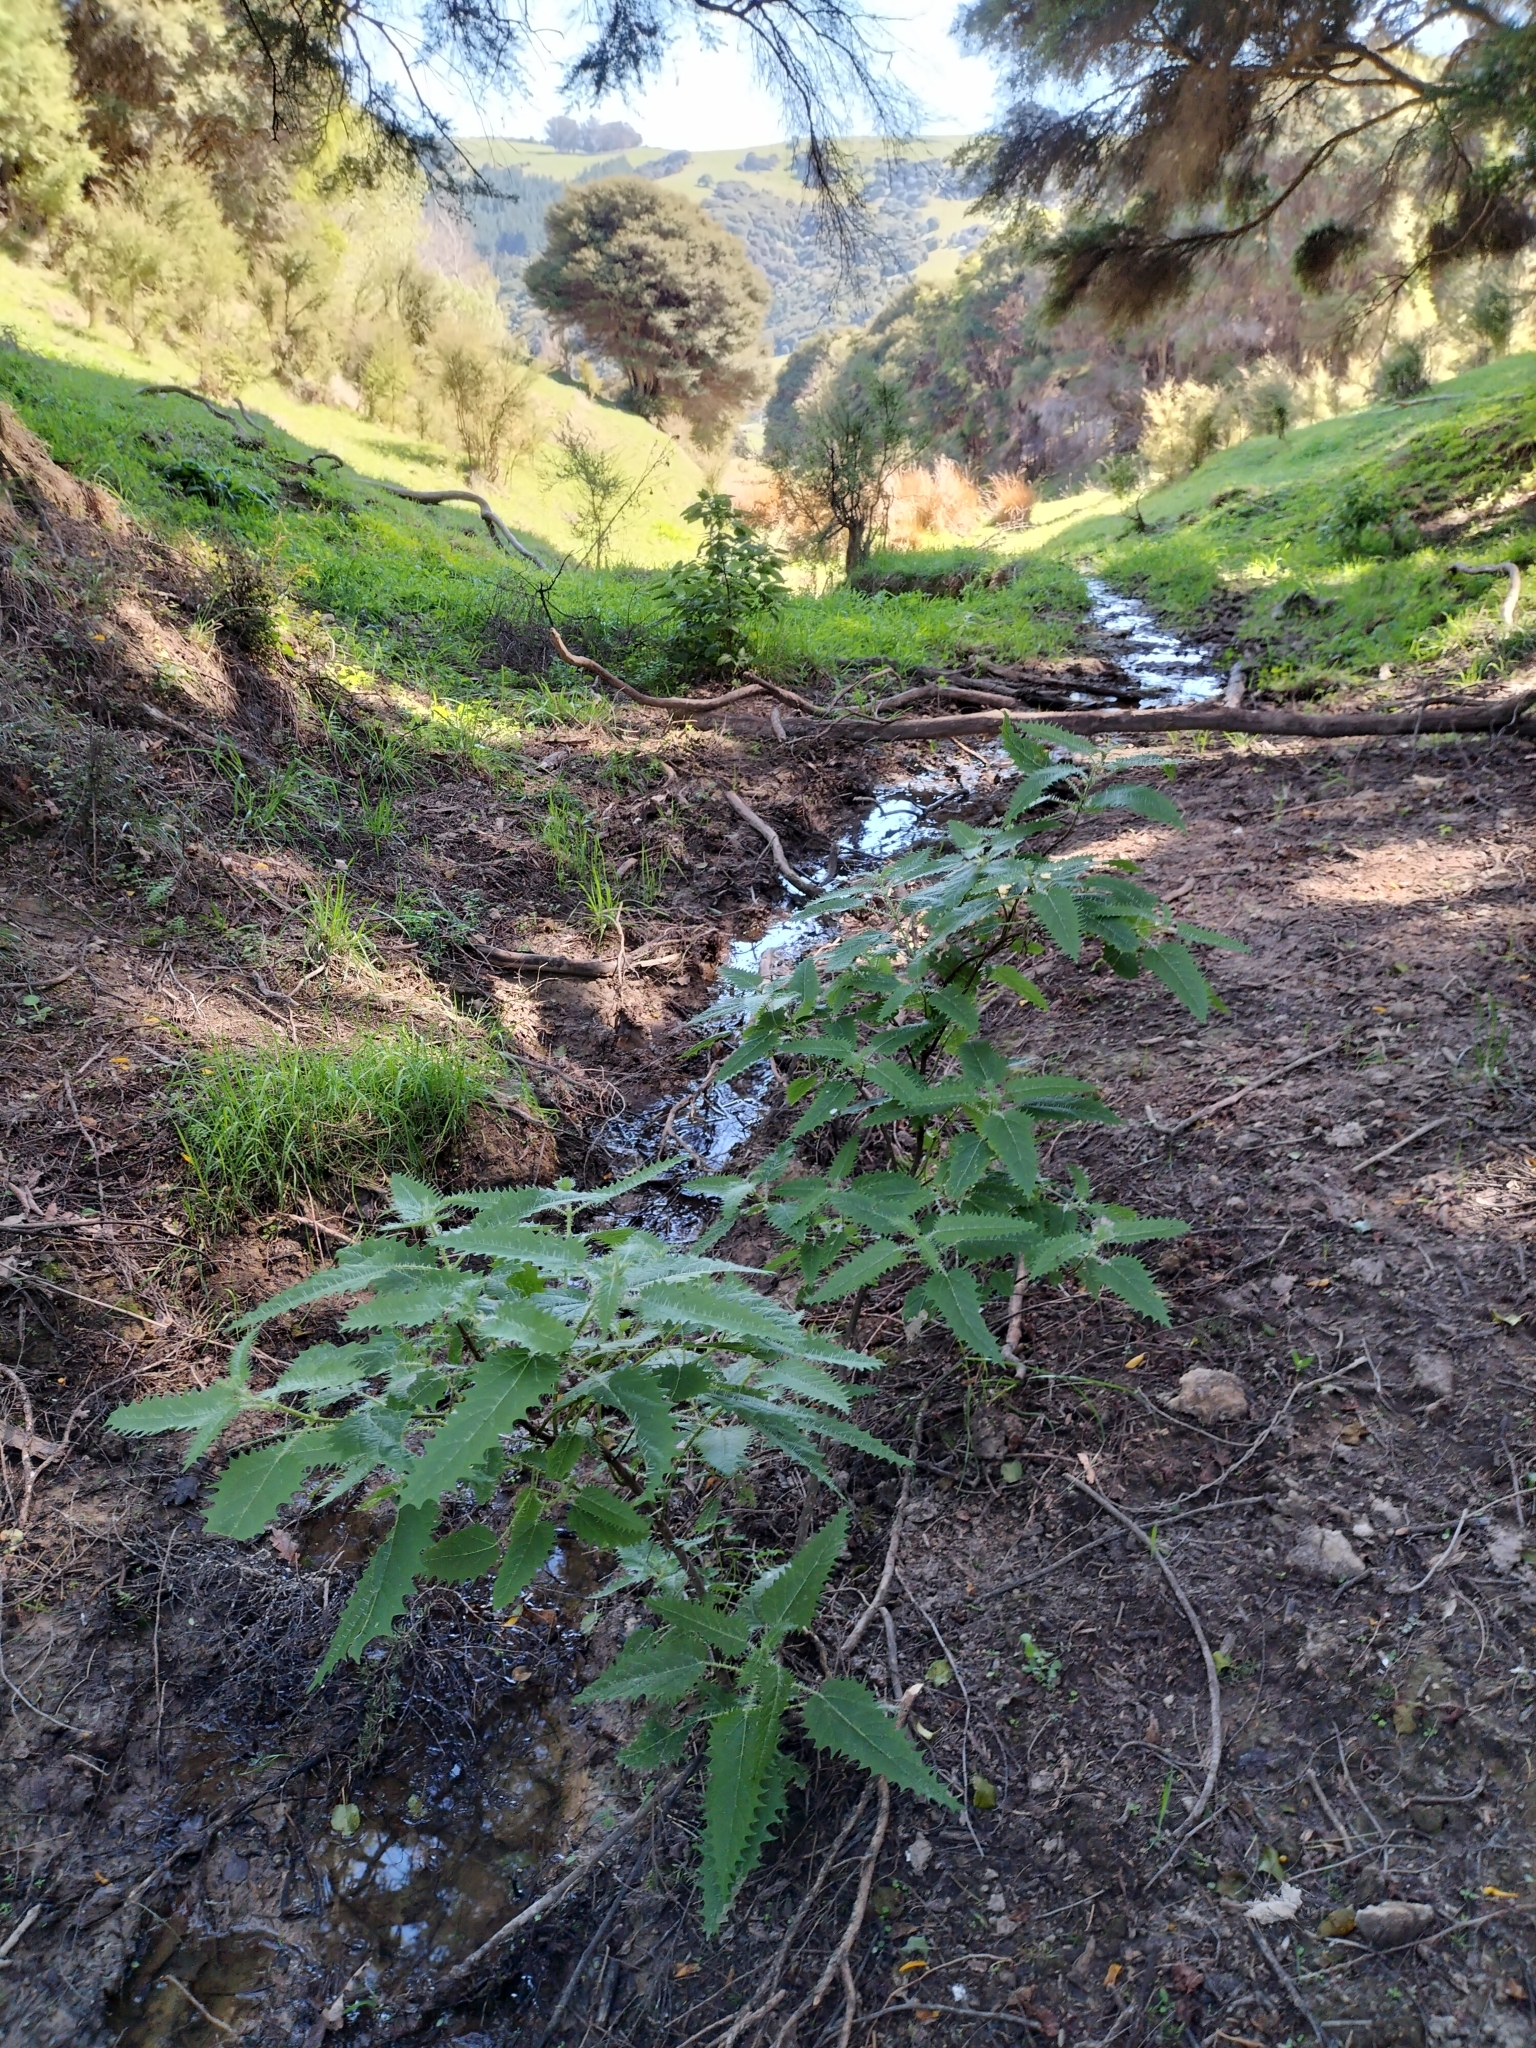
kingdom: Plantae
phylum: Tracheophyta
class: Magnoliopsida
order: Rosales
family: Urticaceae
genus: Urtica
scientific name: Urtica ferox
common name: Tree nettle
